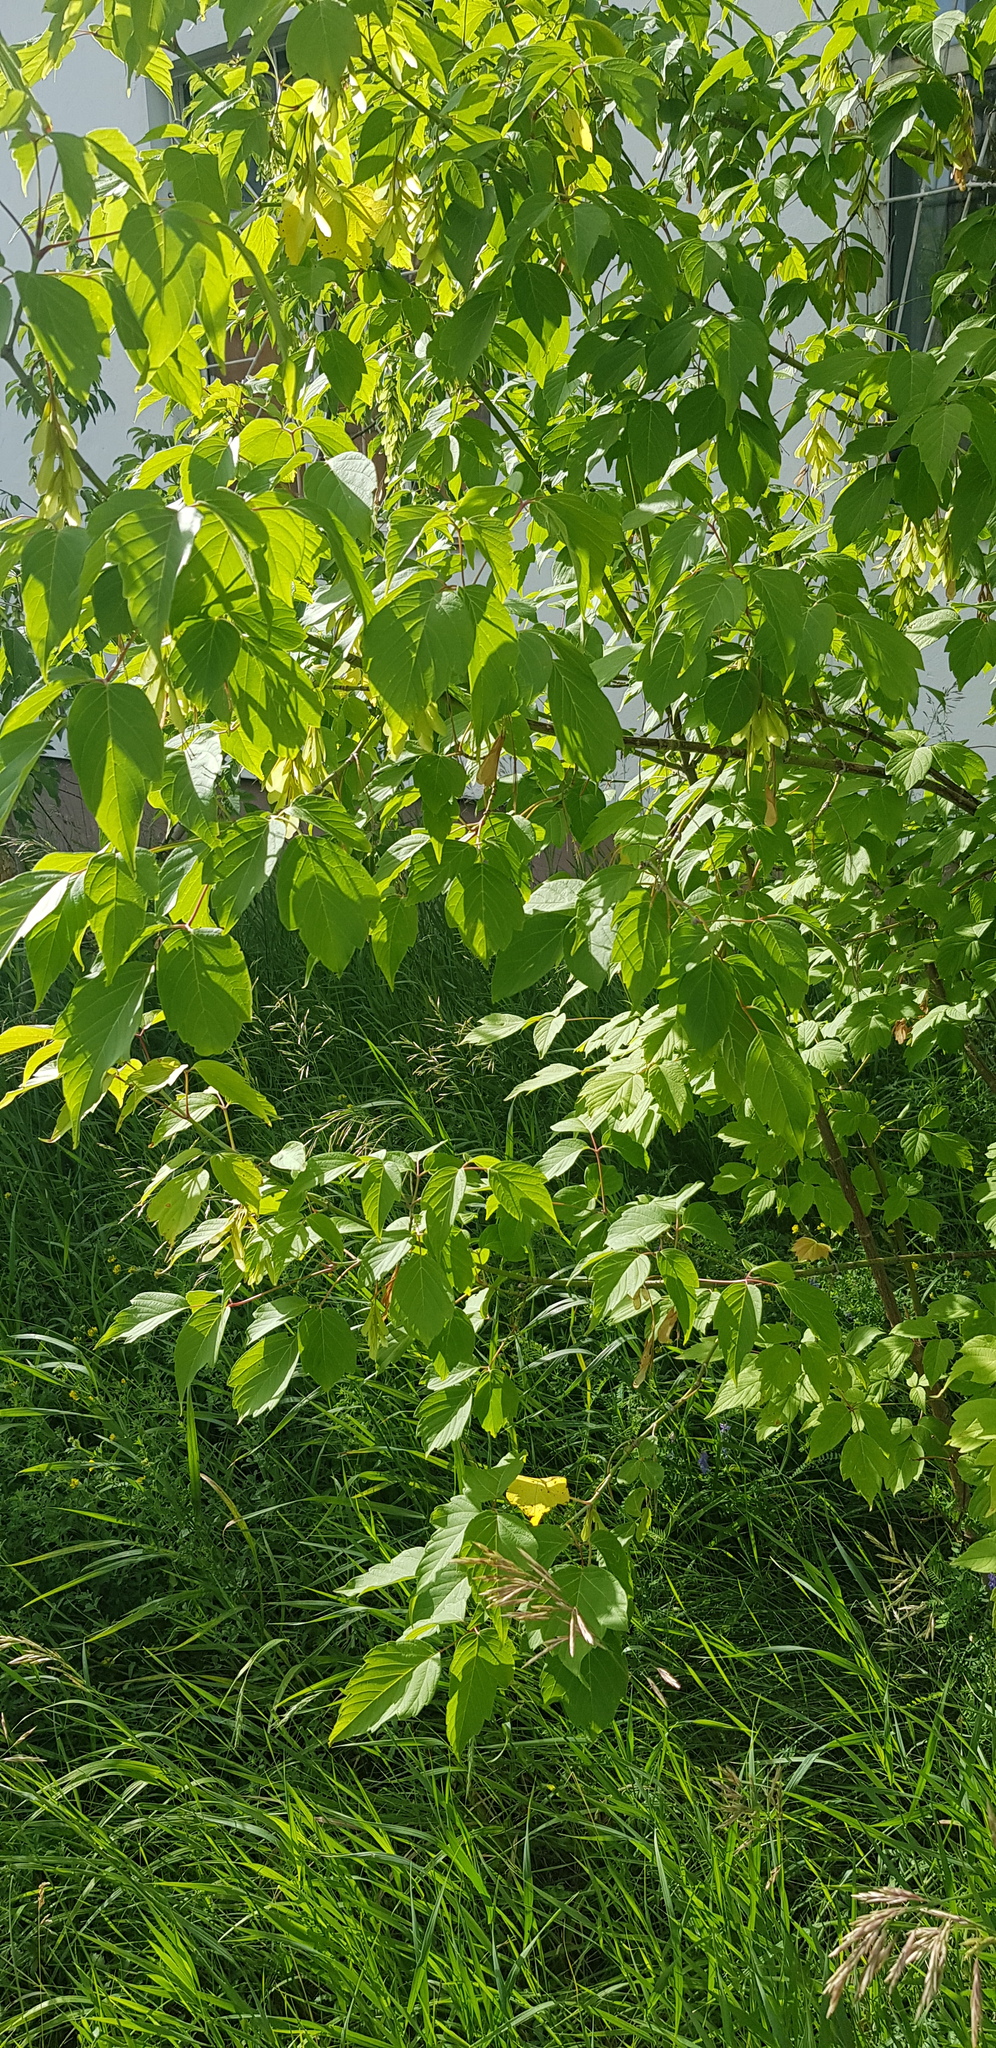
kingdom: Plantae
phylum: Tracheophyta
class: Magnoliopsida
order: Malpighiales
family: Salicaceae
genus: Populus
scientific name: Populus tremula
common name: European aspen
